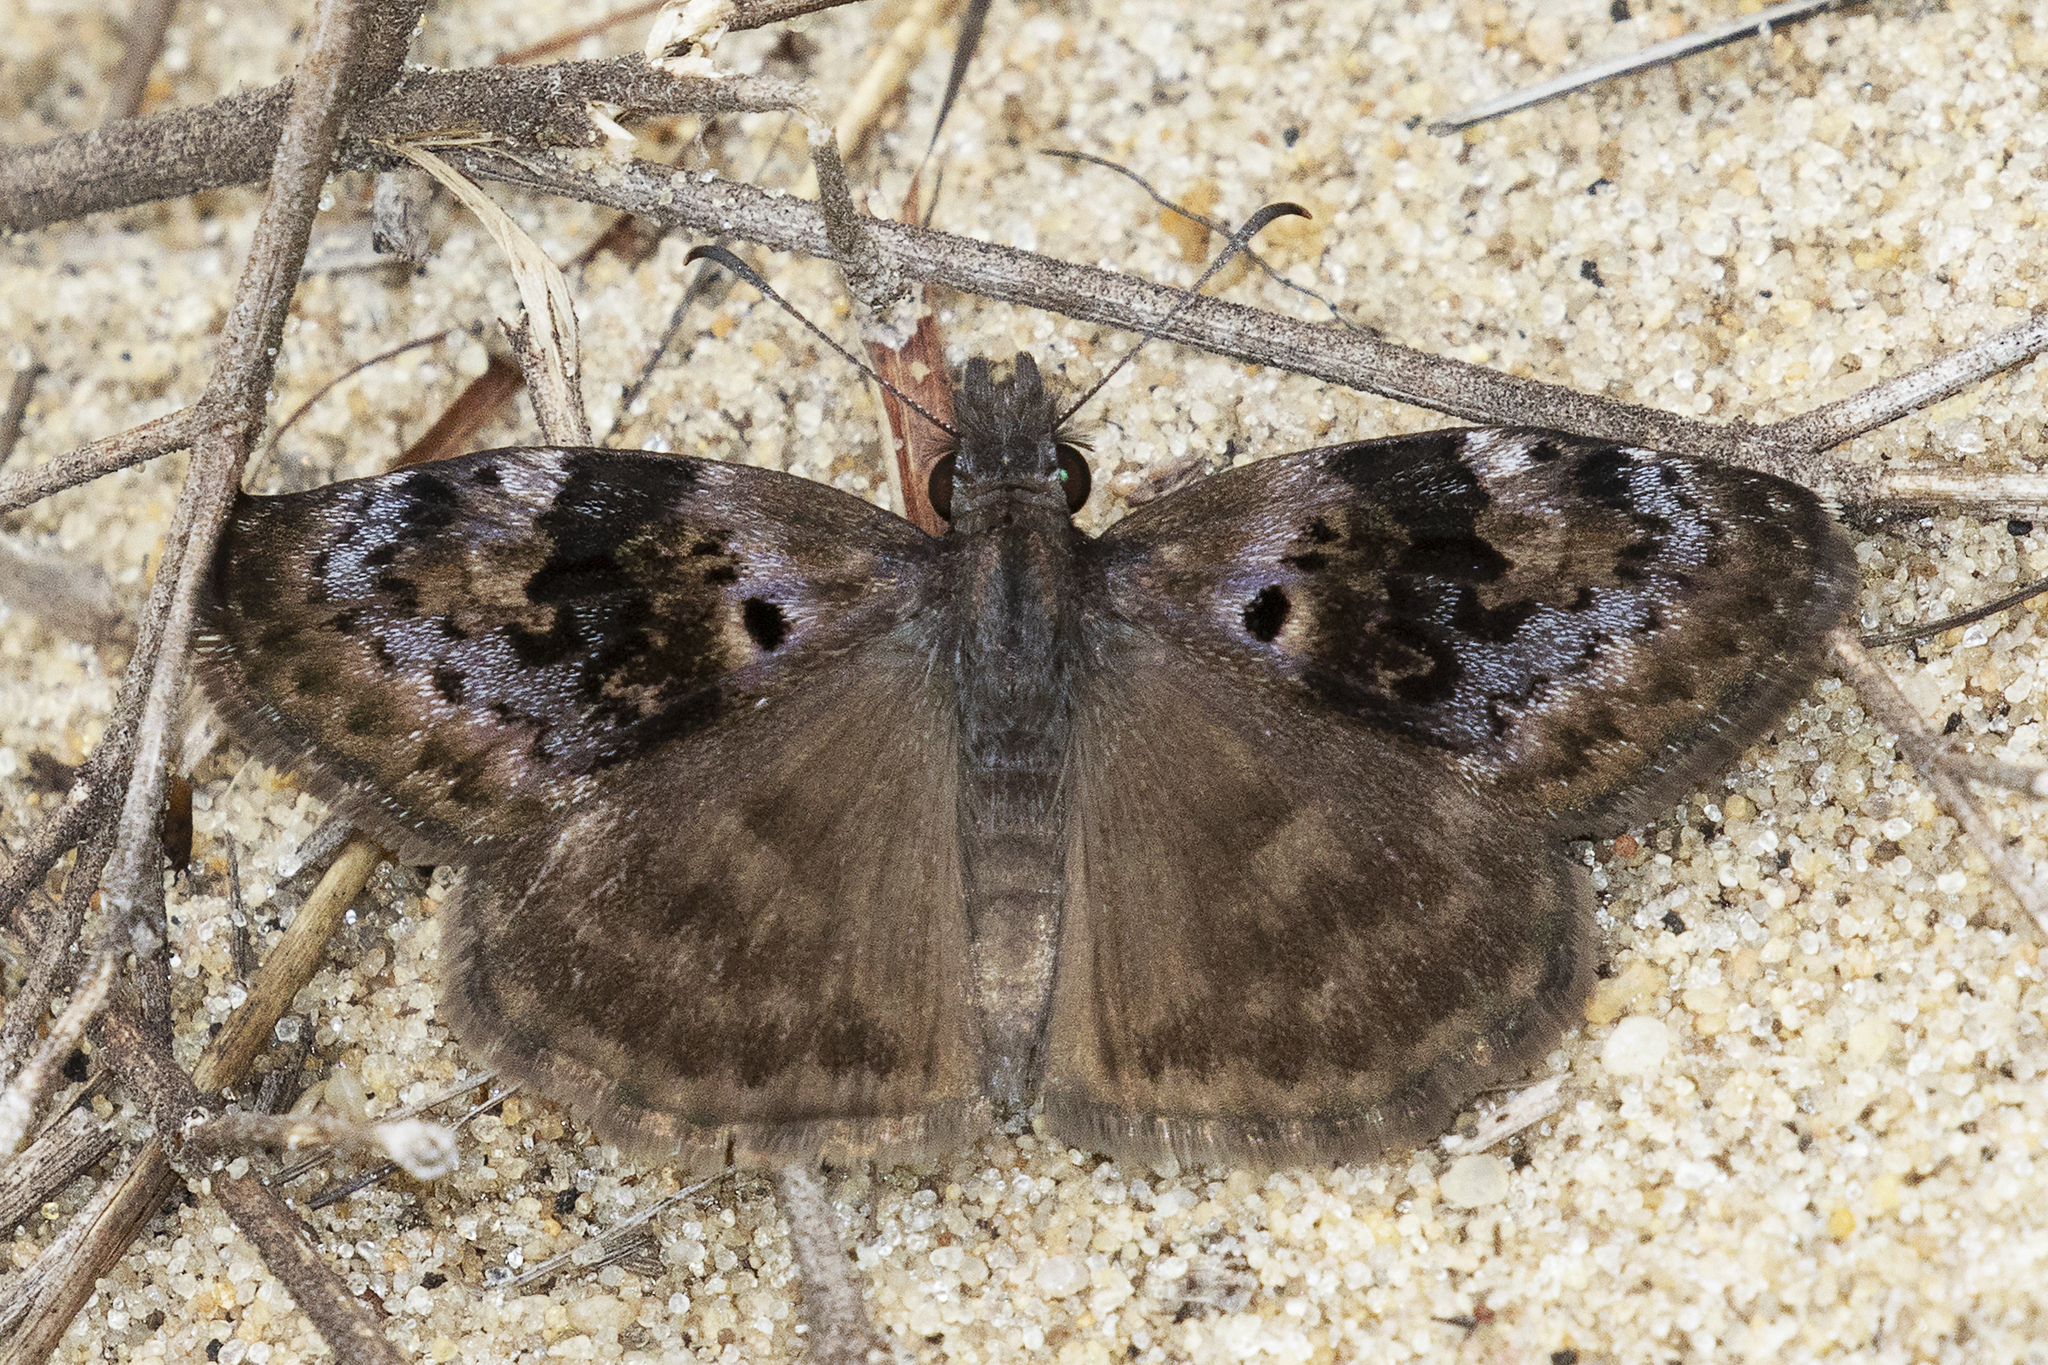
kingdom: Animalia
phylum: Arthropoda
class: Insecta
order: Lepidoptera
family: Hesperiidae
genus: Chiothion
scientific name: Chiothion
